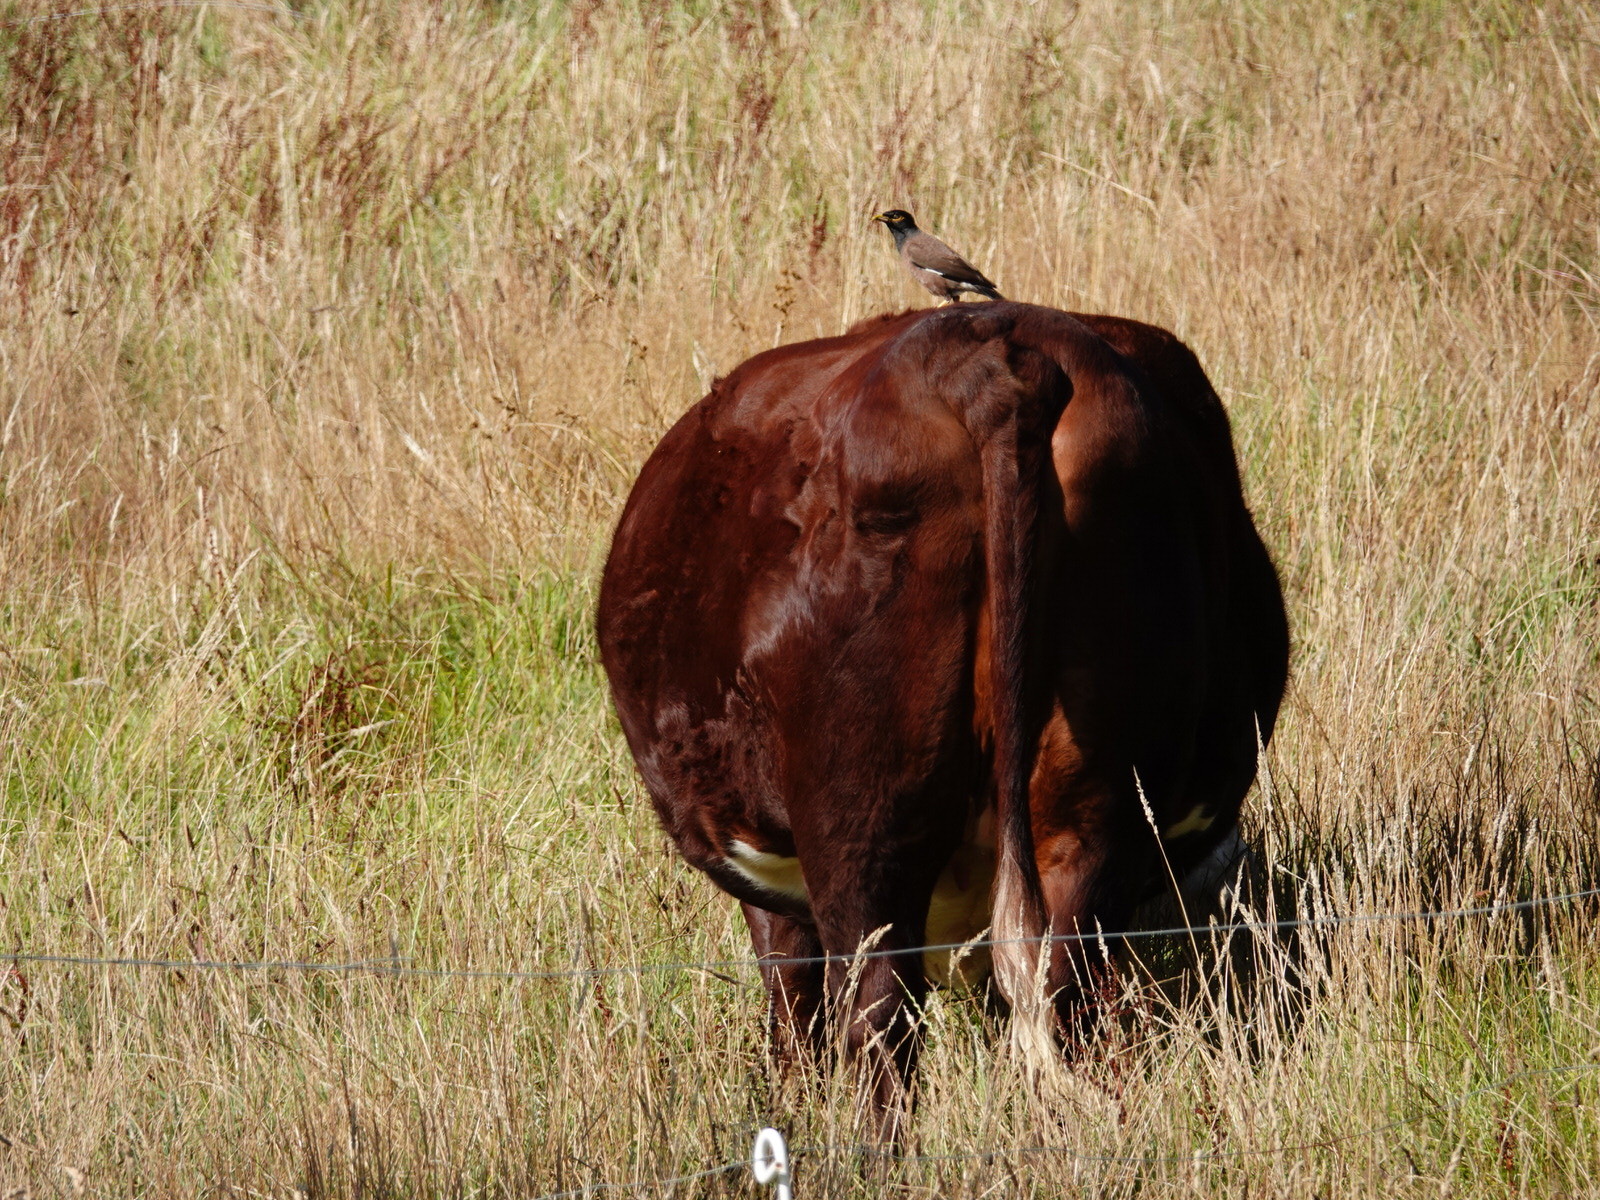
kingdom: Animalia
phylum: Chordata
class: Aves
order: Passeriformes
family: Sturnidae
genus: Acridotheres
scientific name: Acridotheres tristis
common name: Common myna
